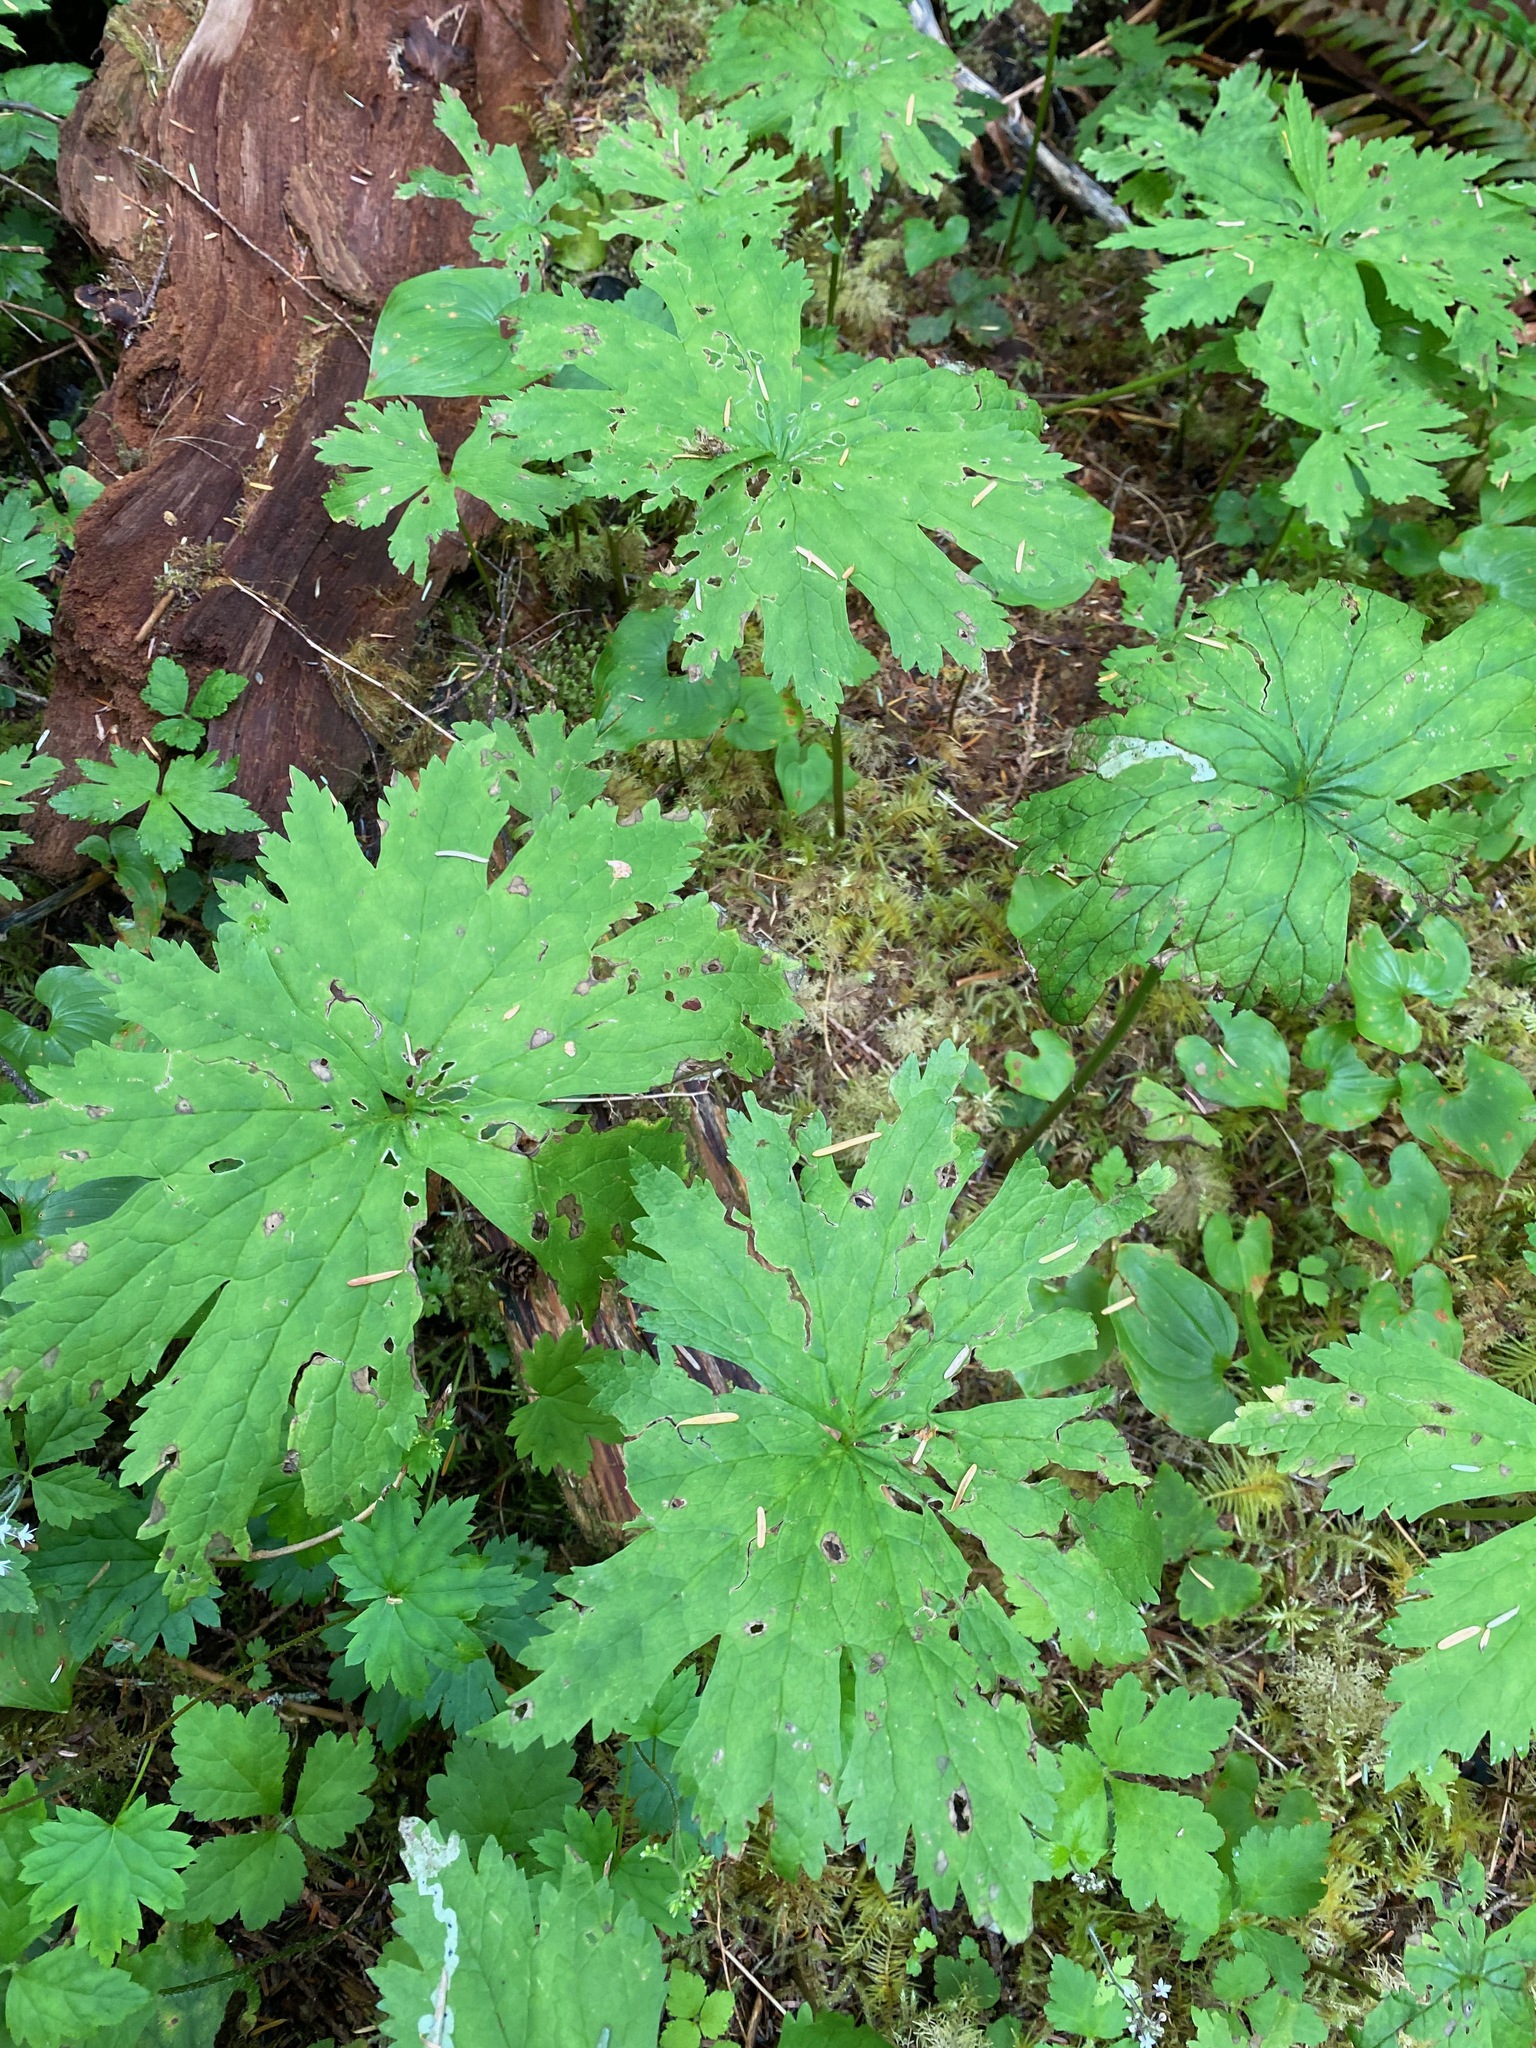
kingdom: Plantae
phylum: Tracheophyta
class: Magnoliopsida
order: Ranunculales
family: Ranunculaceae
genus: Trautvetteria
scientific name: Trautvetteria carolinensis
